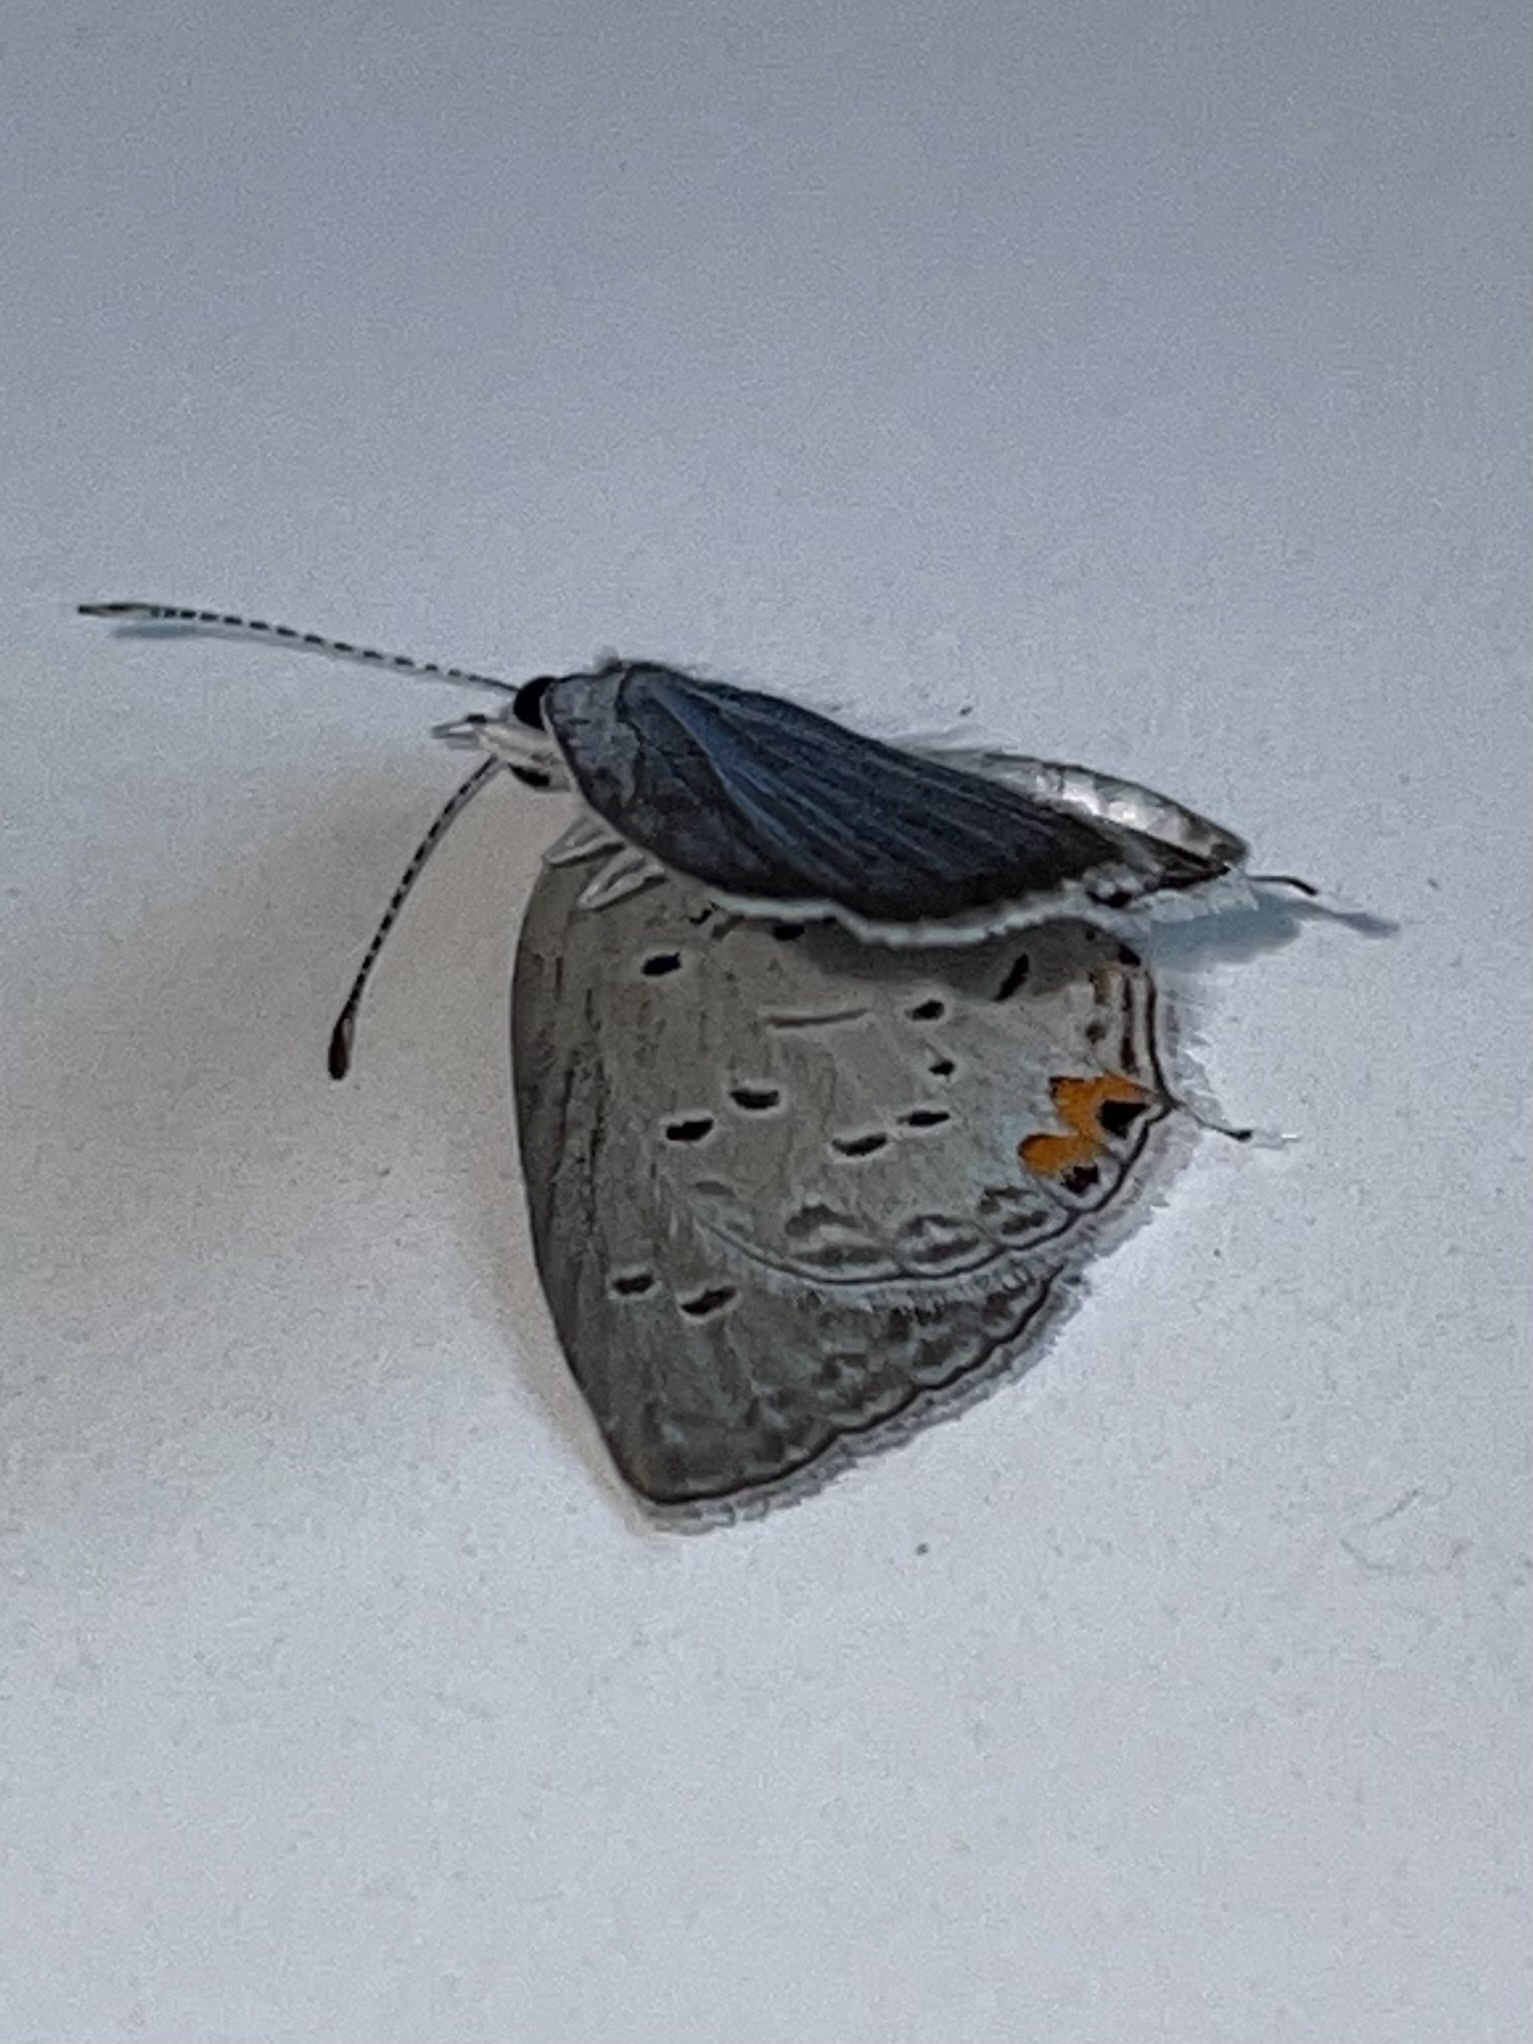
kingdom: Animalia
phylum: Arthropoda
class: Insecta
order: Lepidoptera
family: Lycaenidae
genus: Elkalyce
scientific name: Elkalyce comyntas
